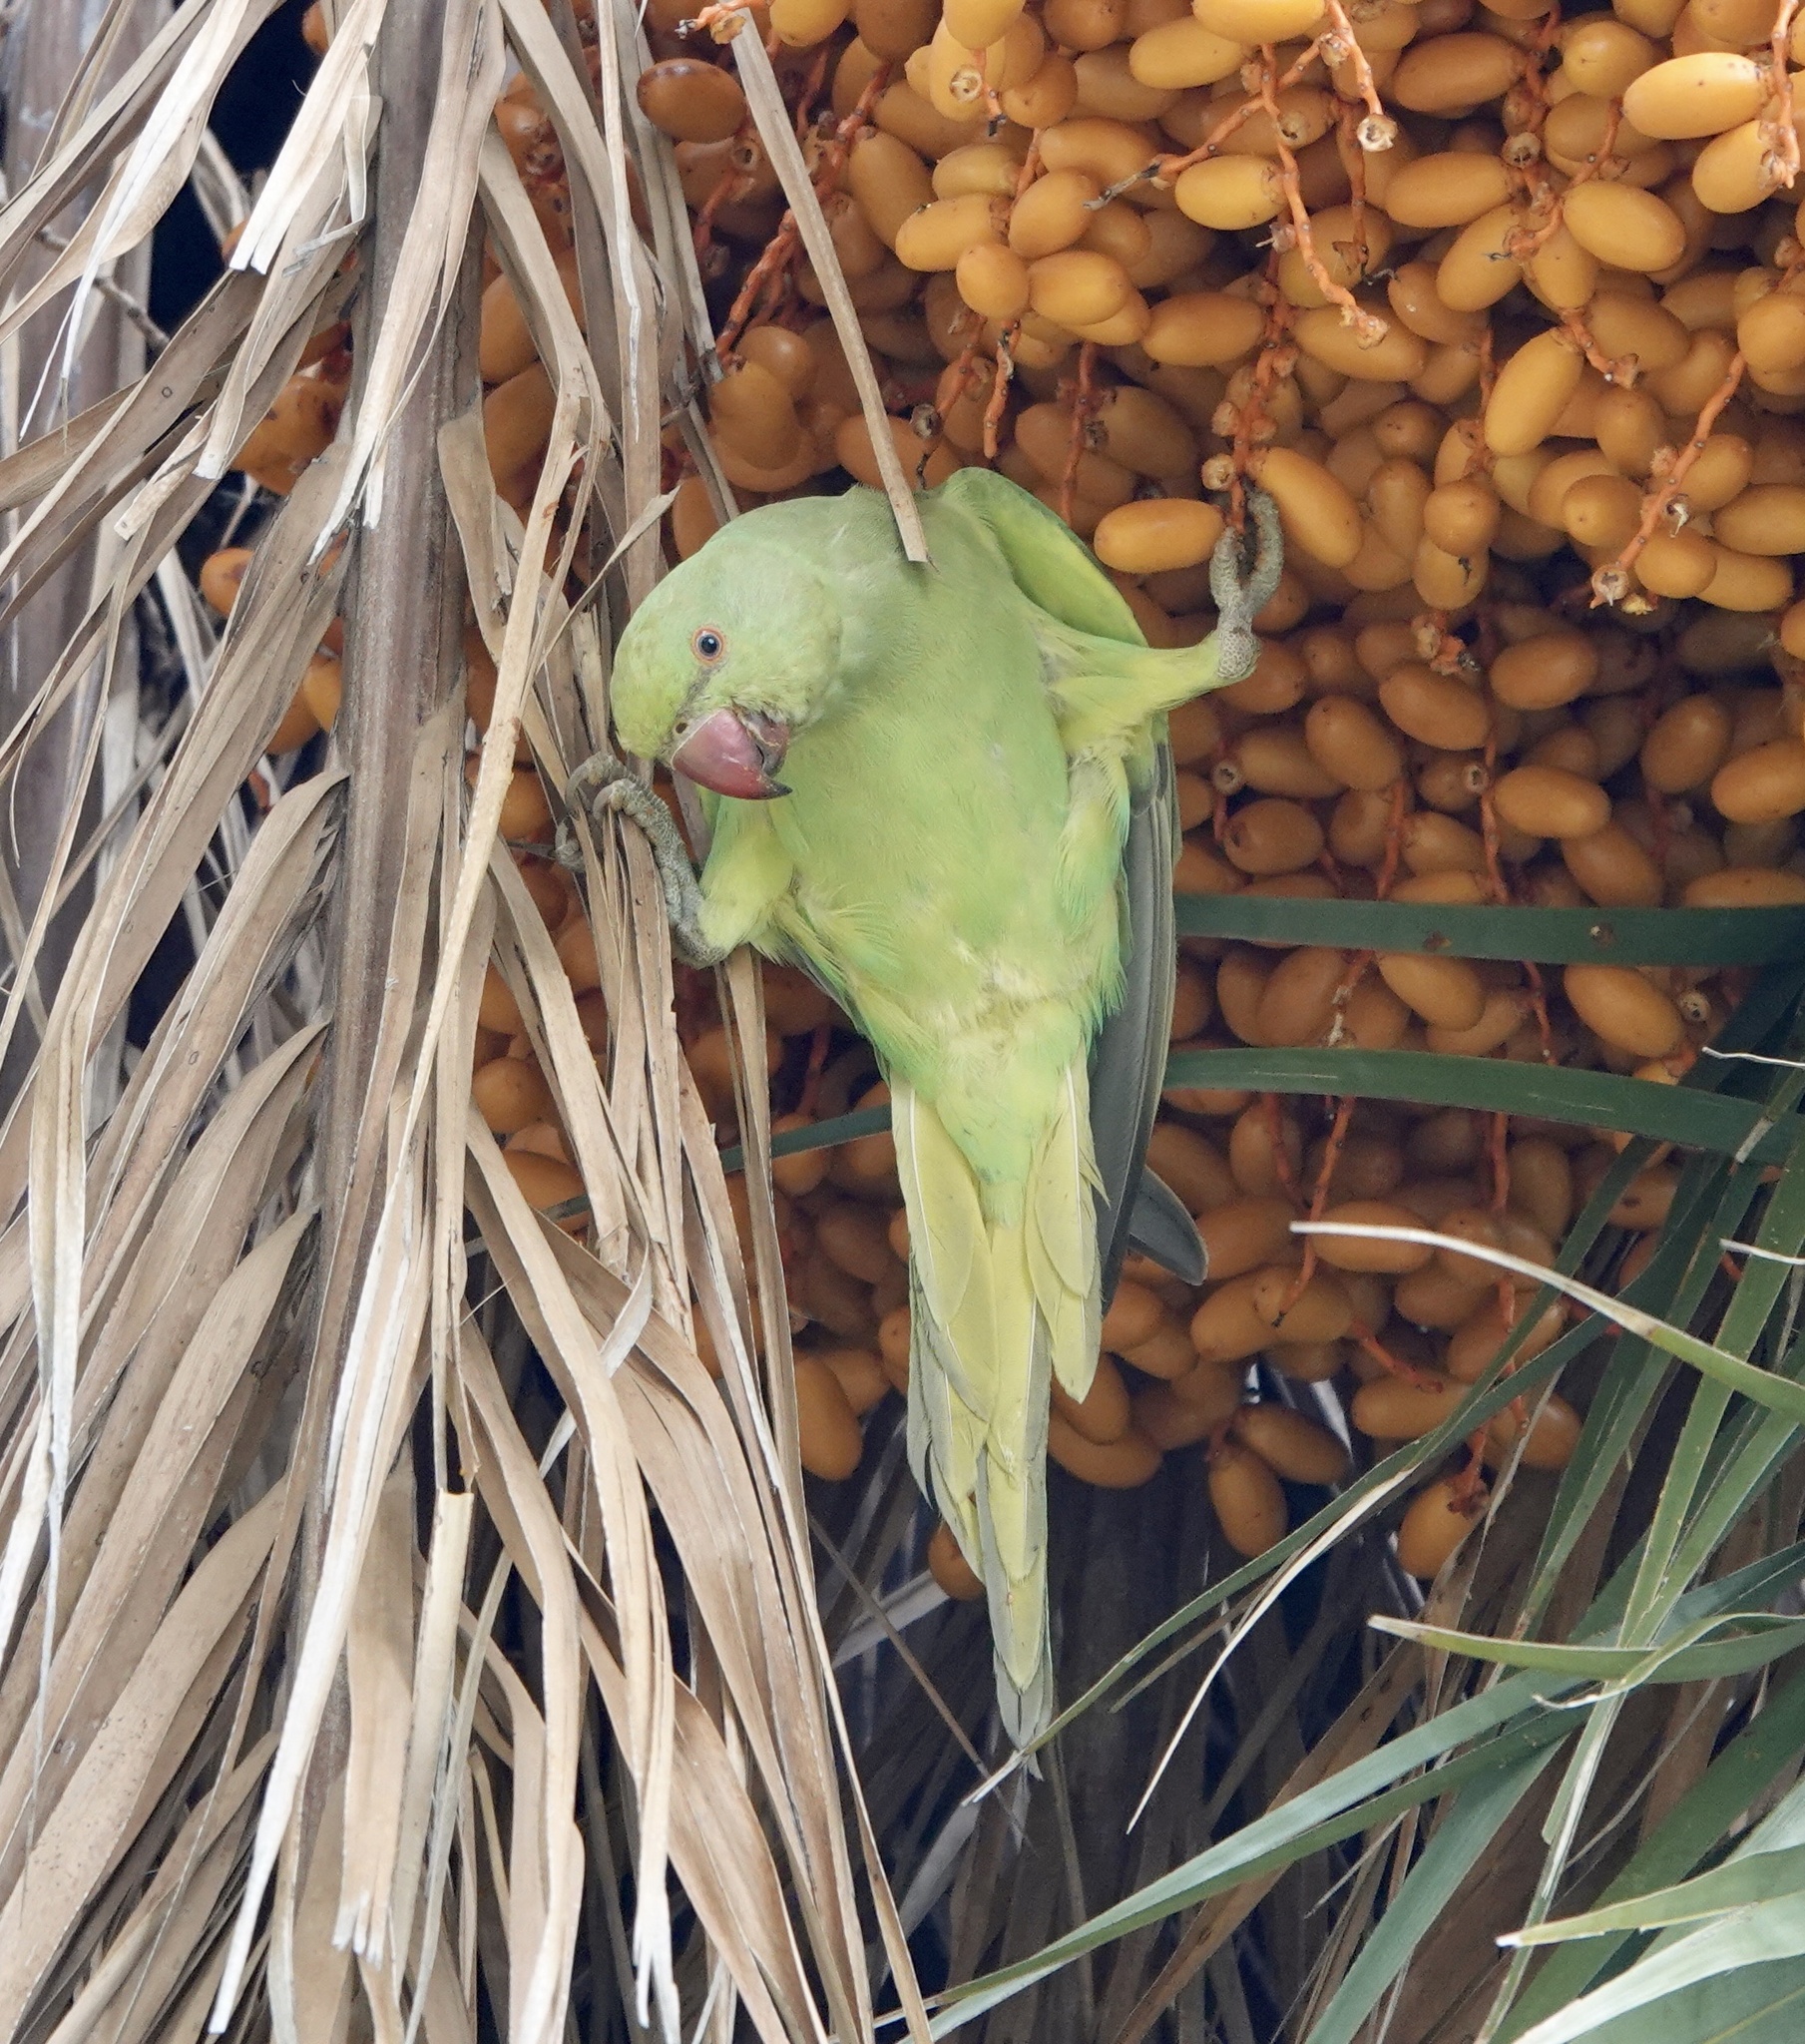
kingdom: Animalia
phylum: Chordata
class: Aves
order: Psittaciformes
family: Psittacidae
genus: Psittacula
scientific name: Psittacula krameri
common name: Rose-ringed parakeet
